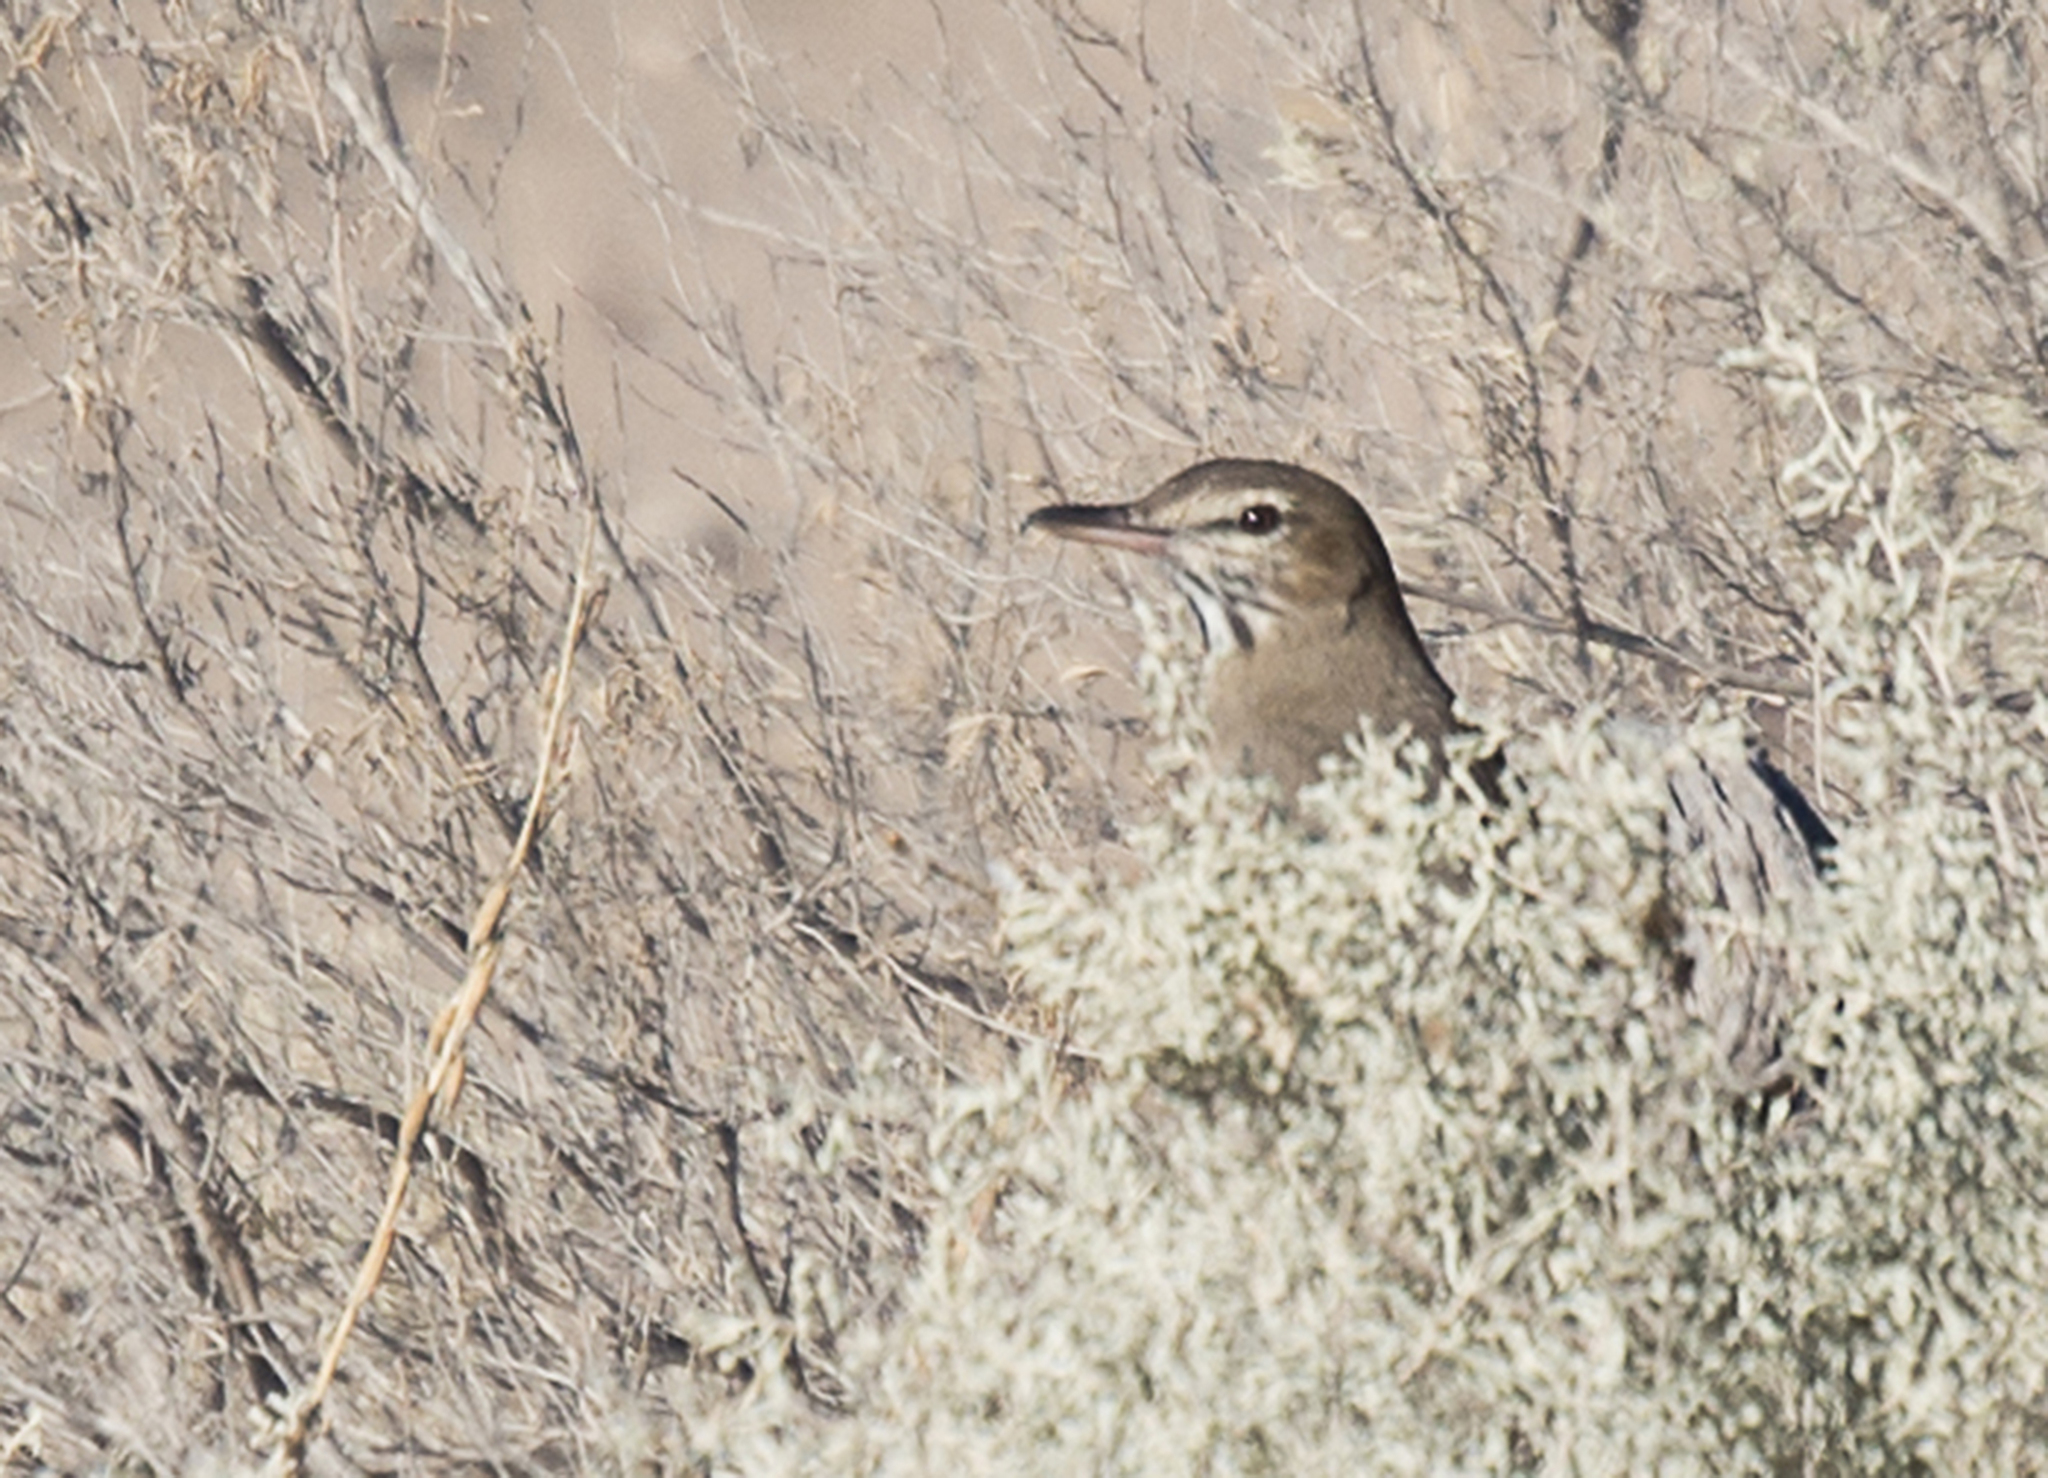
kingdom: Animalia
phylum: Chordata
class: Aves
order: Passeriformes
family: Tyrannidae
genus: Agriornis
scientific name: Agriornis micropterus
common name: Grey-bellied shrike-tyrant
